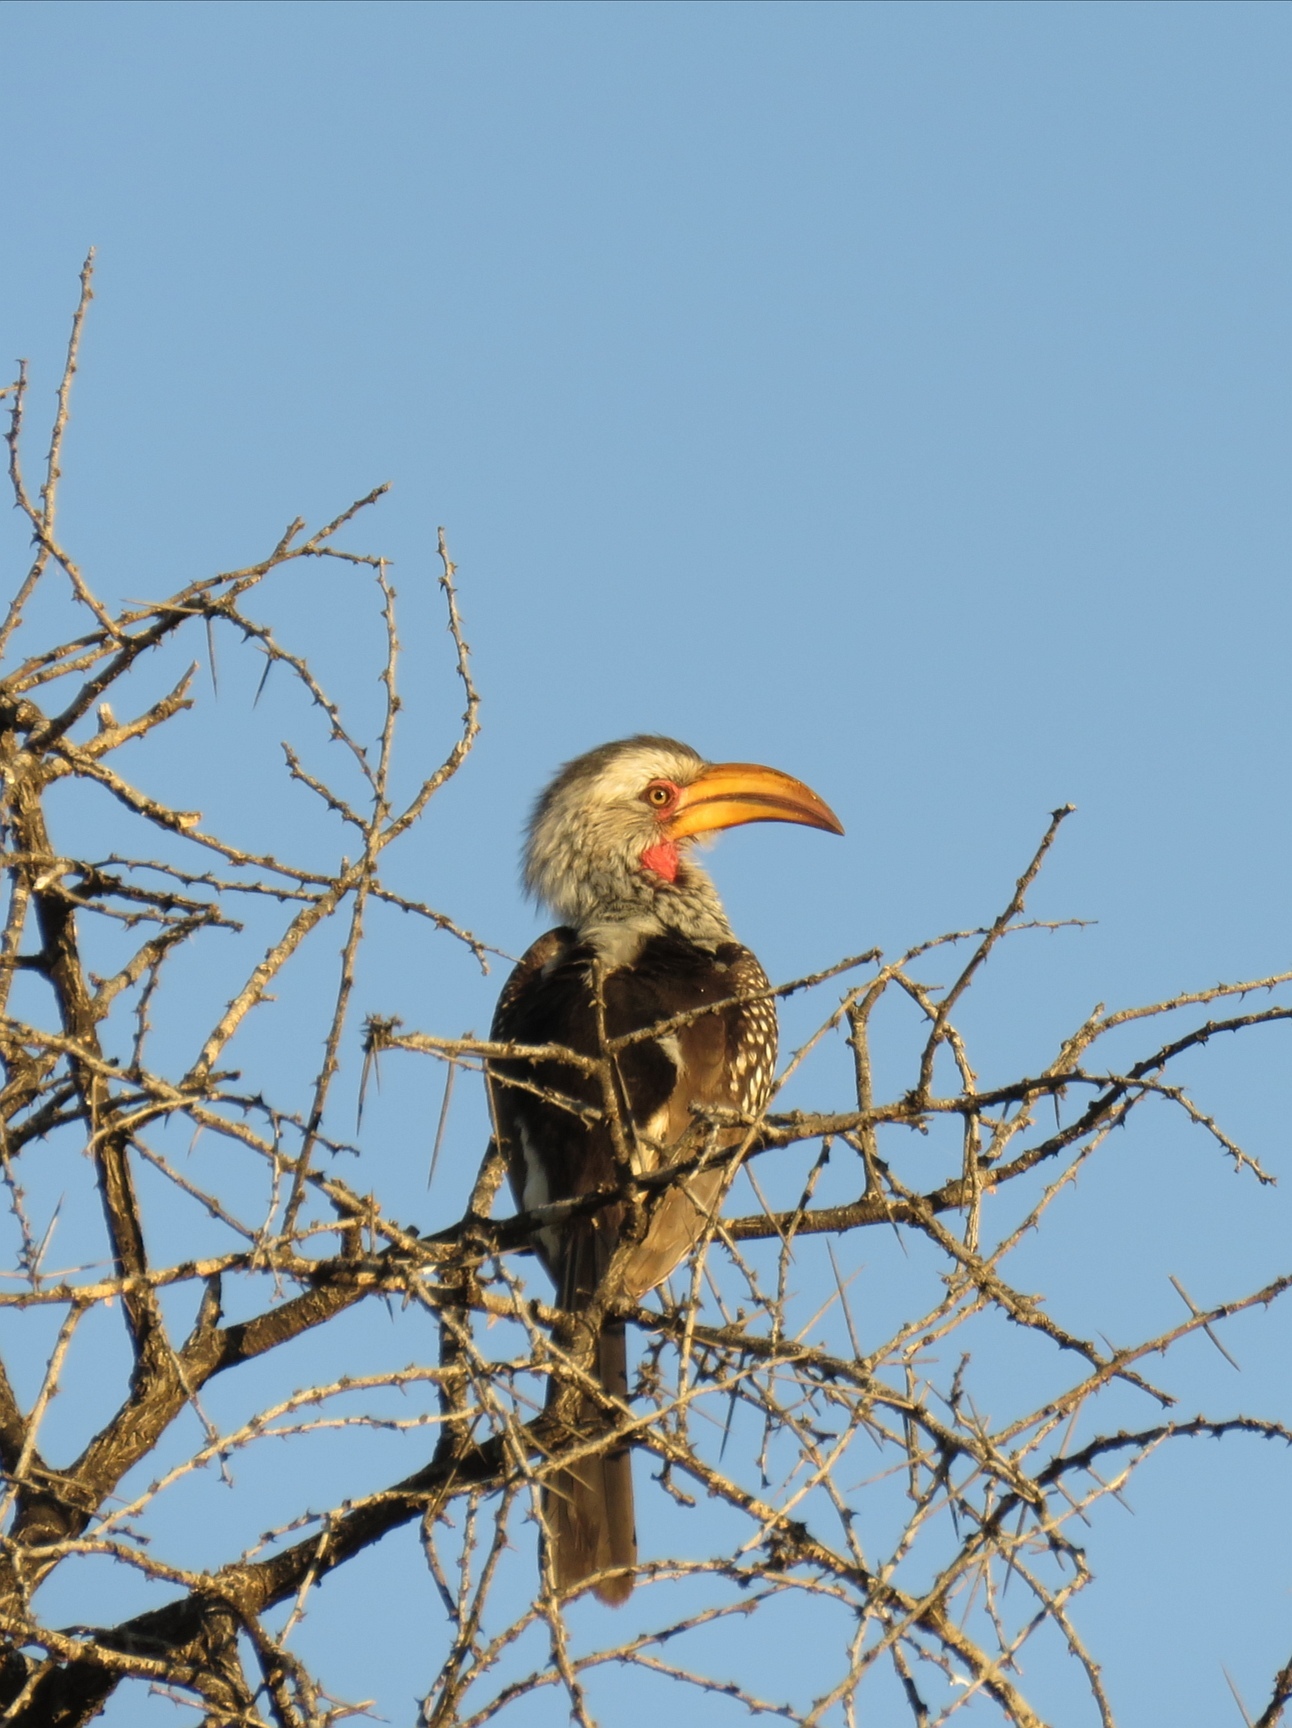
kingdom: Animalia
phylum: Chordata
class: Aves
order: Bucerotiformes
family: Bucerotidae
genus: Tockus
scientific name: Tockus leucomelas
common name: Southern yellow-billed hornbill
